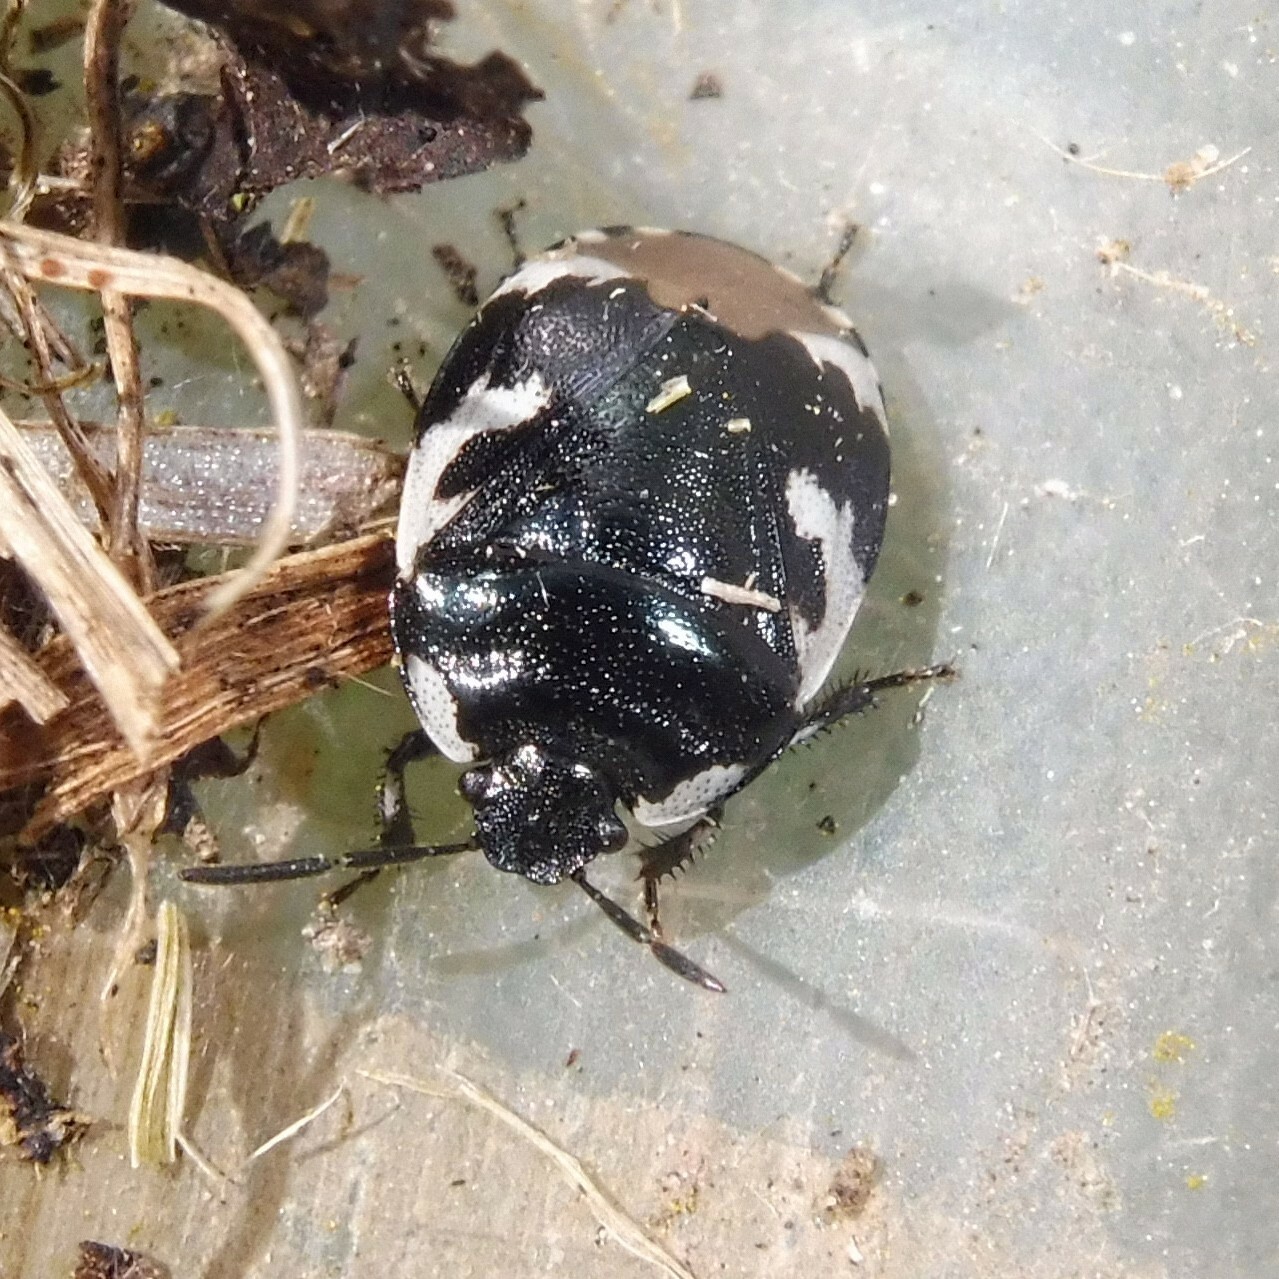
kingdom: Animalia
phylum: Arthropoda
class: Insecta
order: Hemiptera
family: Cydnidae
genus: Tritomegas
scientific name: Tritomegas bicolor
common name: Pied shieldbug
